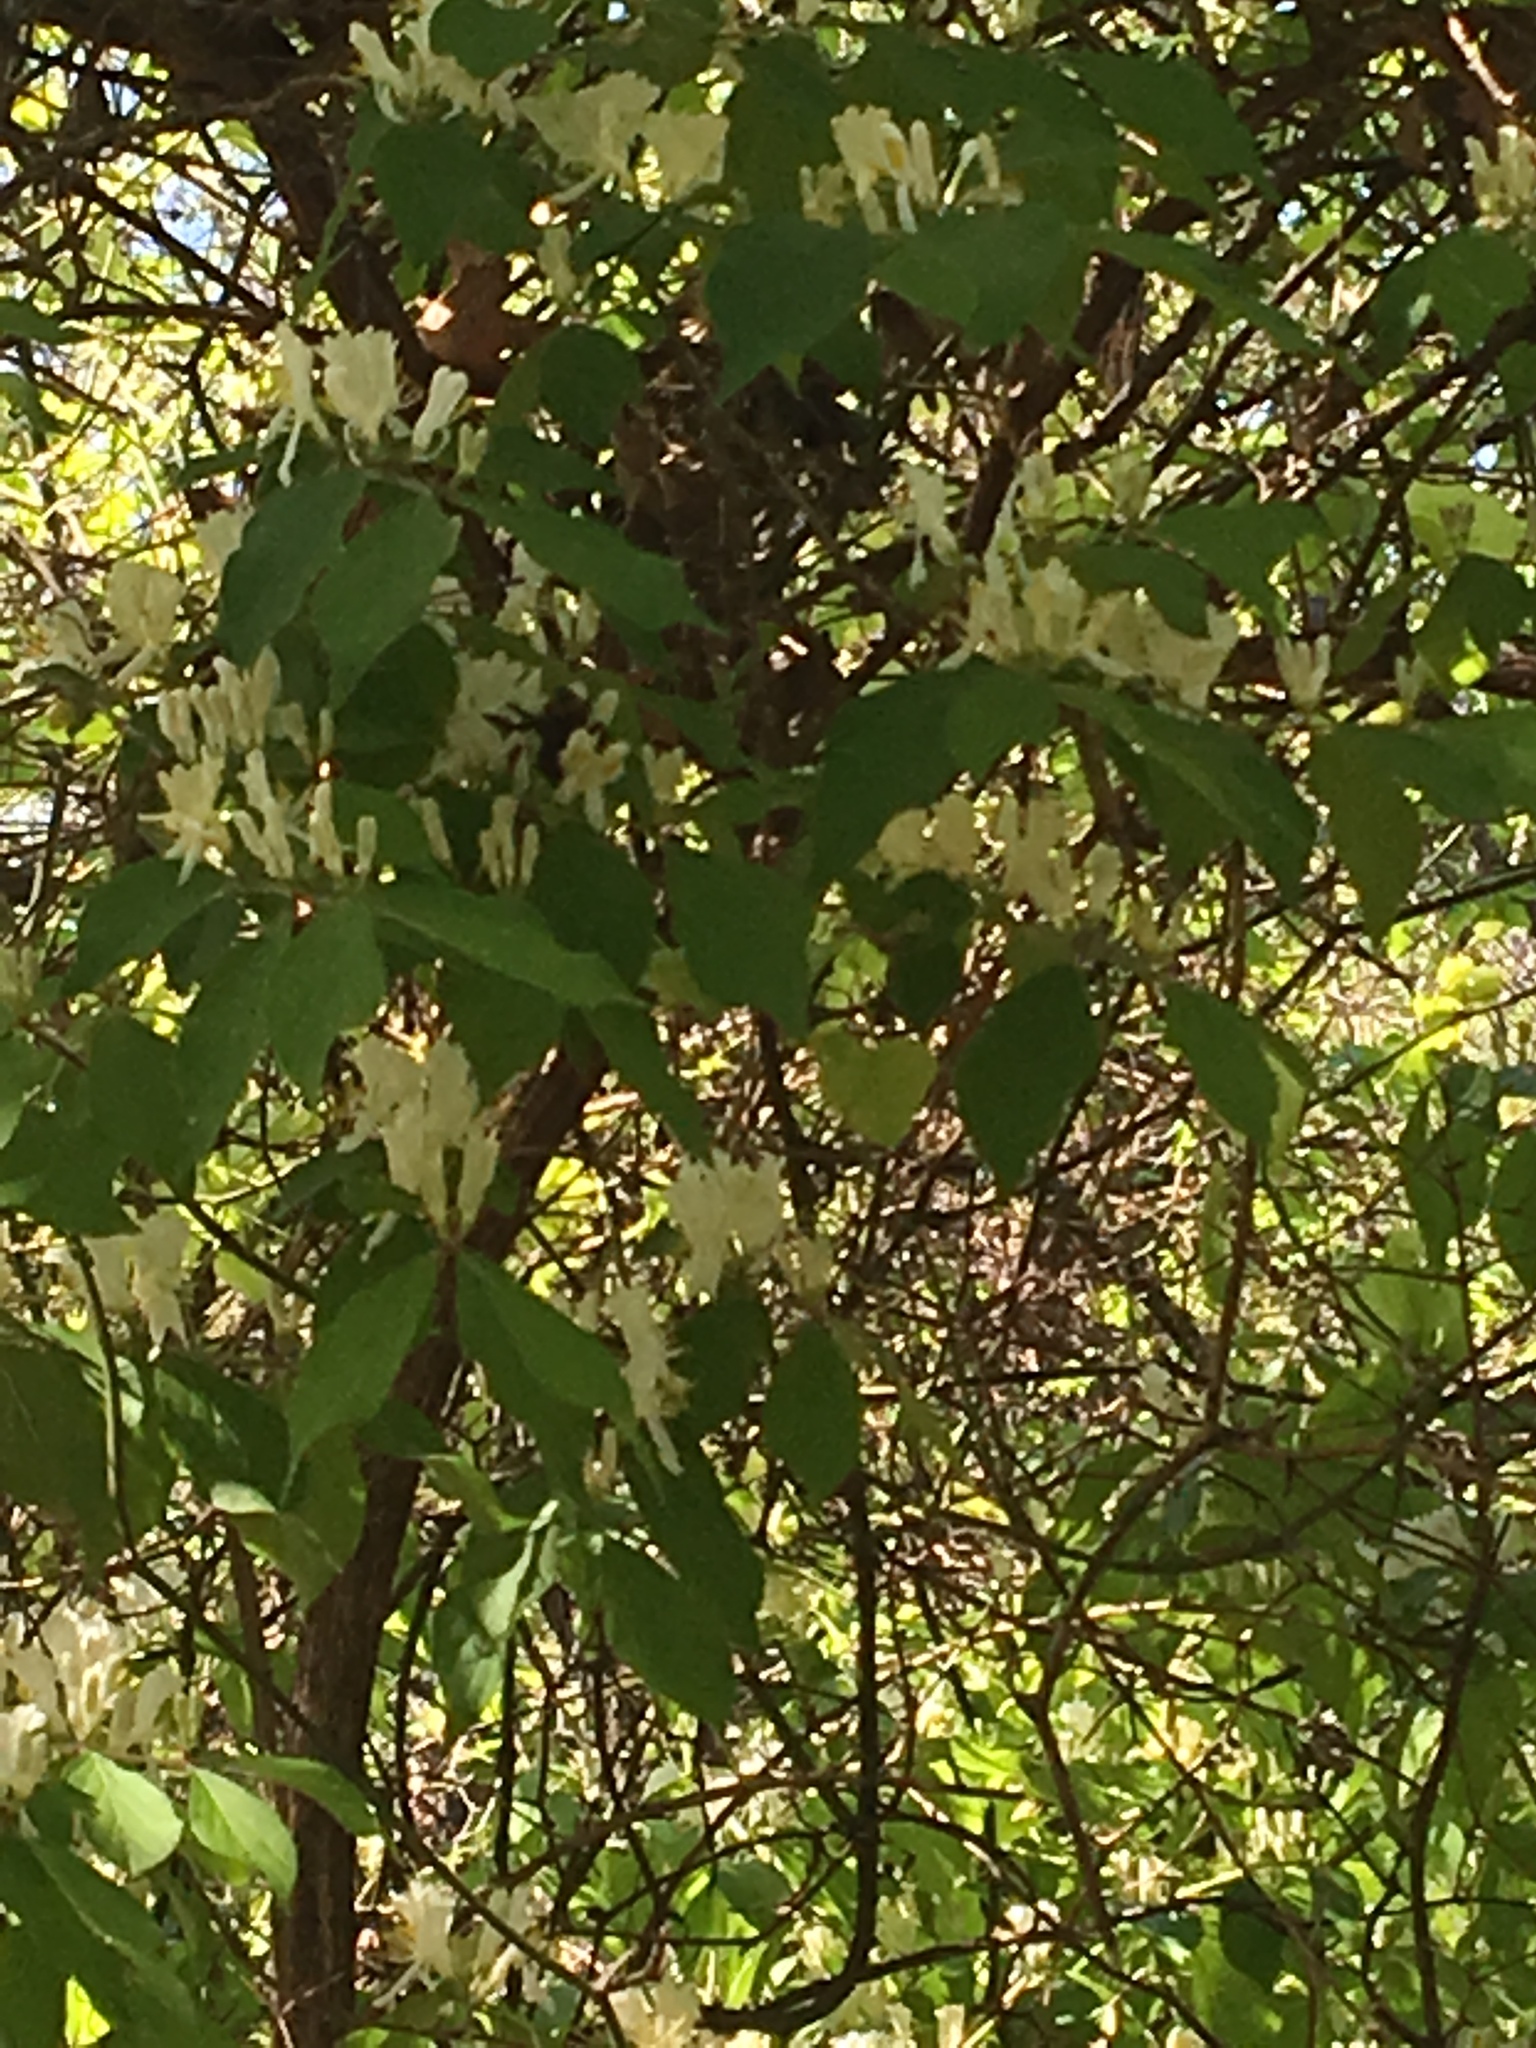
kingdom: Plantae
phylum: Tracheophyta
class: Magnoliopsida
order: Dipsacales
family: Caprifoliaceae
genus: Lonicera
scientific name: Lonicera maackii
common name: Amur honeysuckle
